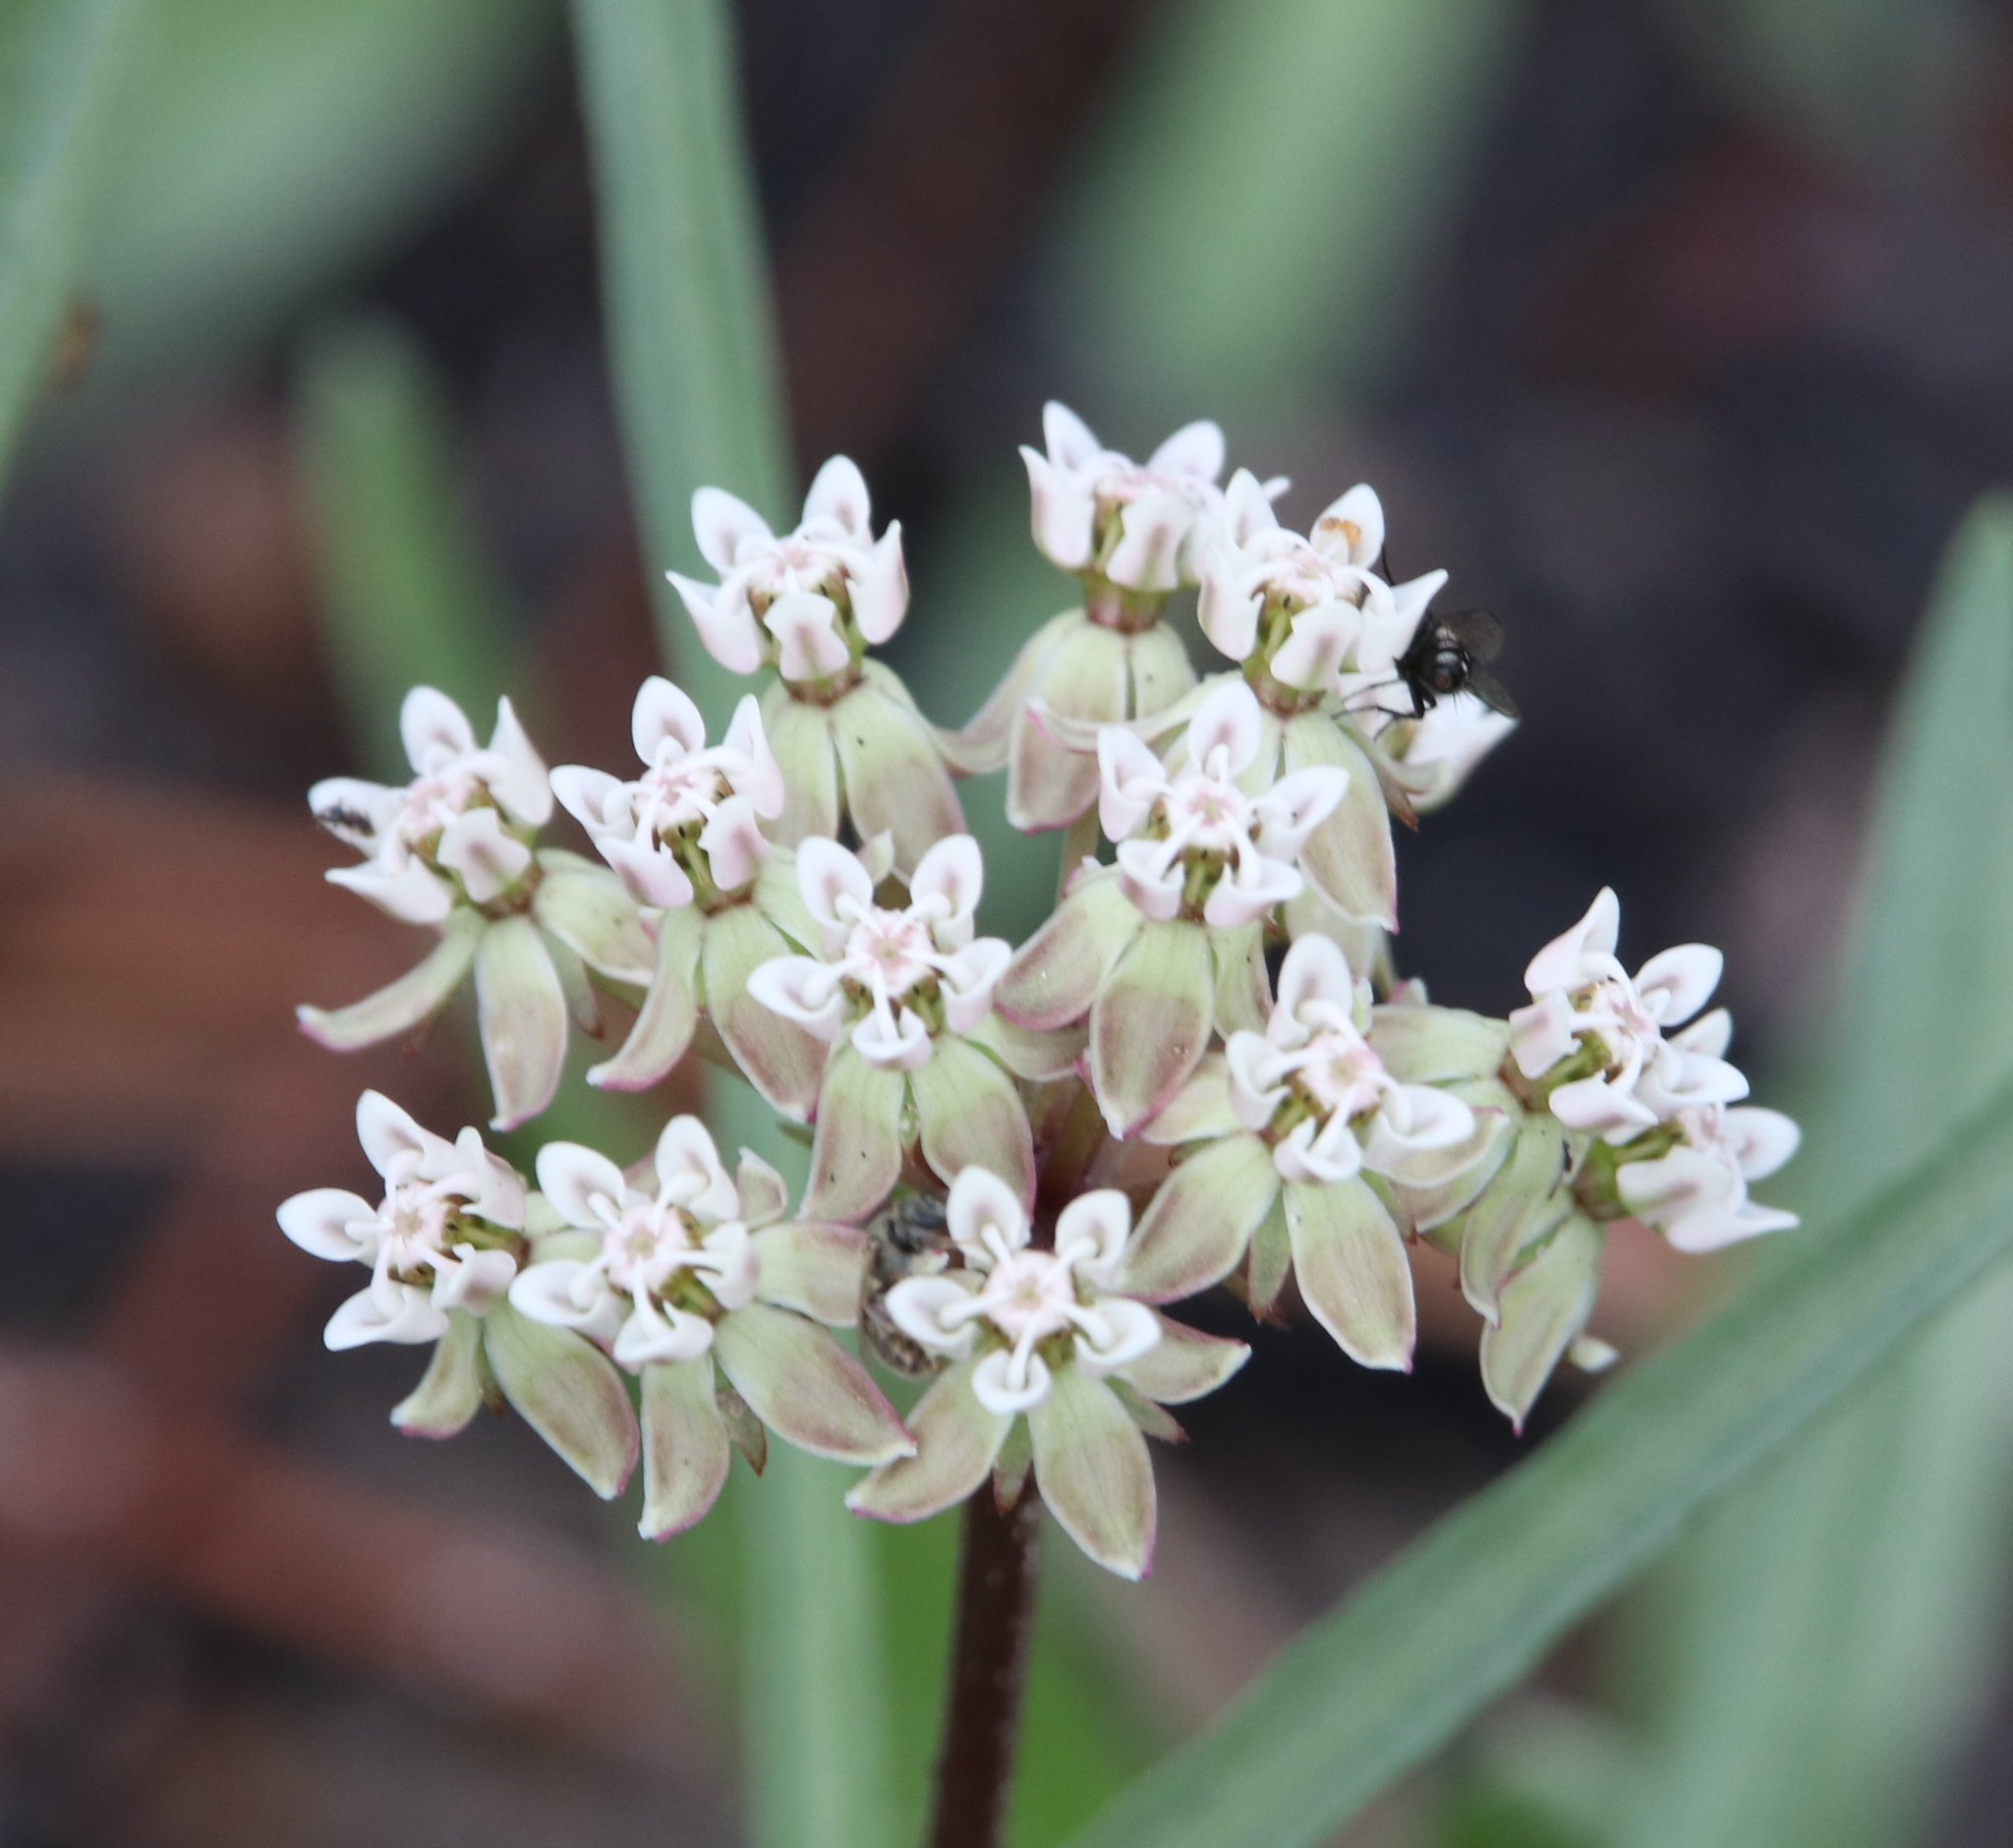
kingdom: Plantae
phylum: Tracheophyta
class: Magnoliopsida
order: Gentianales
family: Apocynaceae
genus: Asclepias
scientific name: Asclepias michauxii
